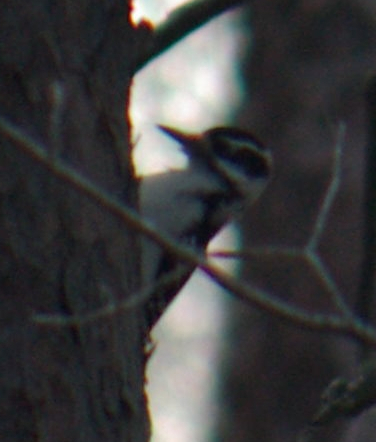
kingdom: Animalia
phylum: Chordata
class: Aves
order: Piciformes
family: Picidae
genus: Leuconotopicus
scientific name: Leuconotopicus villosus
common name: Hairy woodpecker
